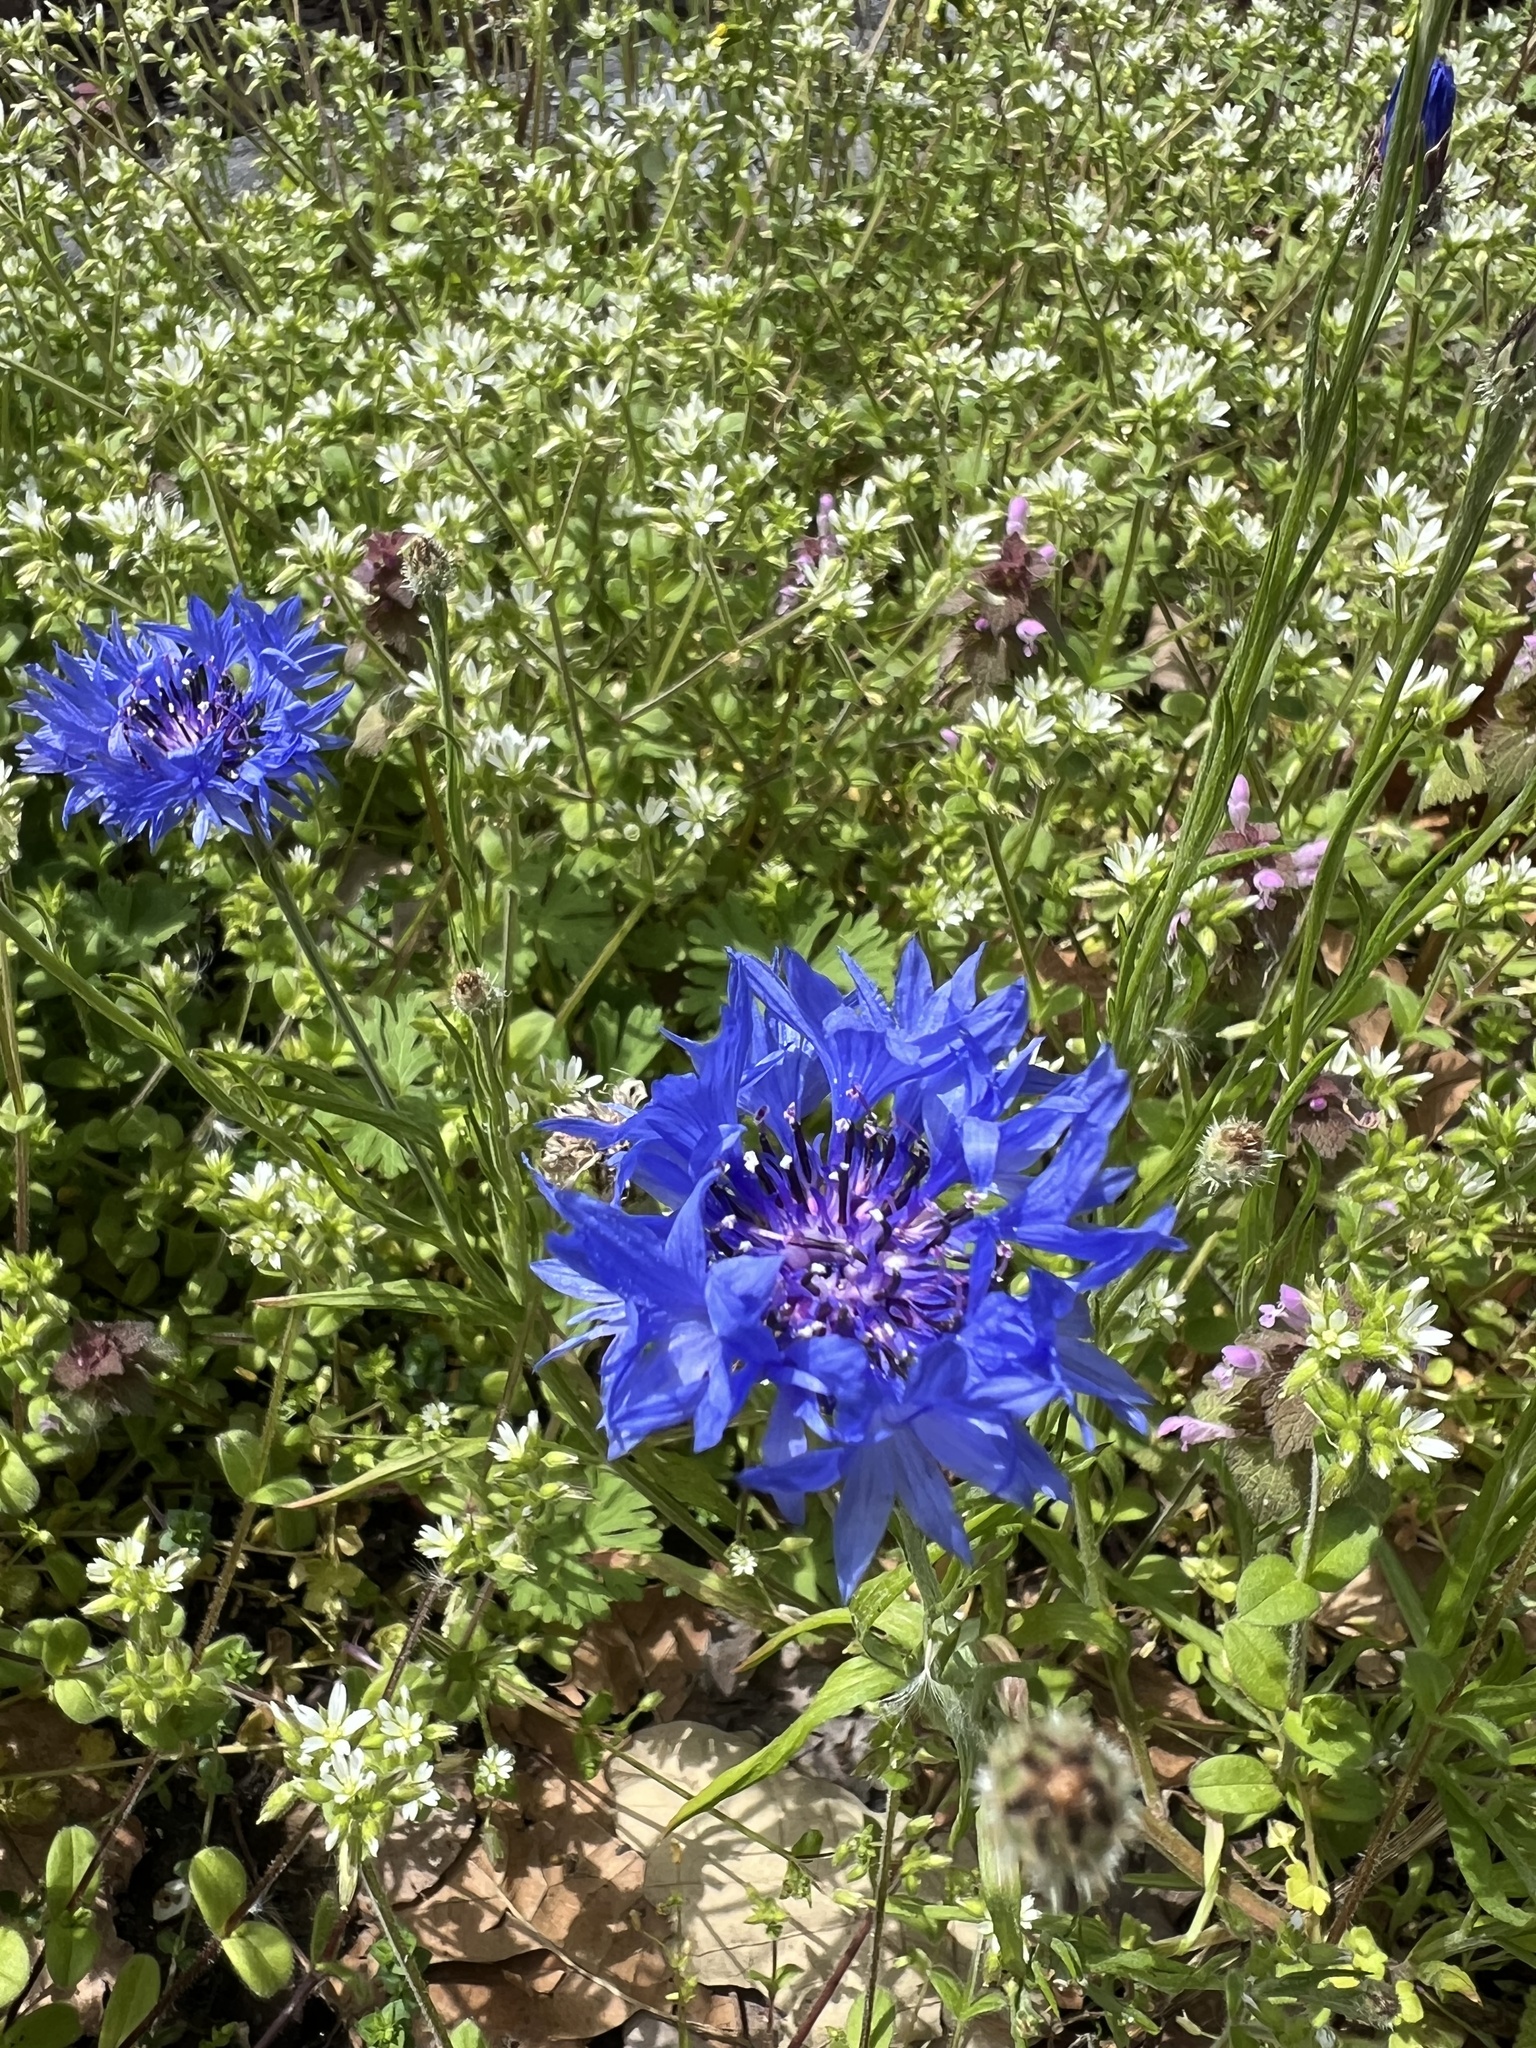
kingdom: Plantae
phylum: Tracheophyta
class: Magnoliopsida
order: Asterales
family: Asteraceae
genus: Centaurea
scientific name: Centaurea cyanus
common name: Cornflower
